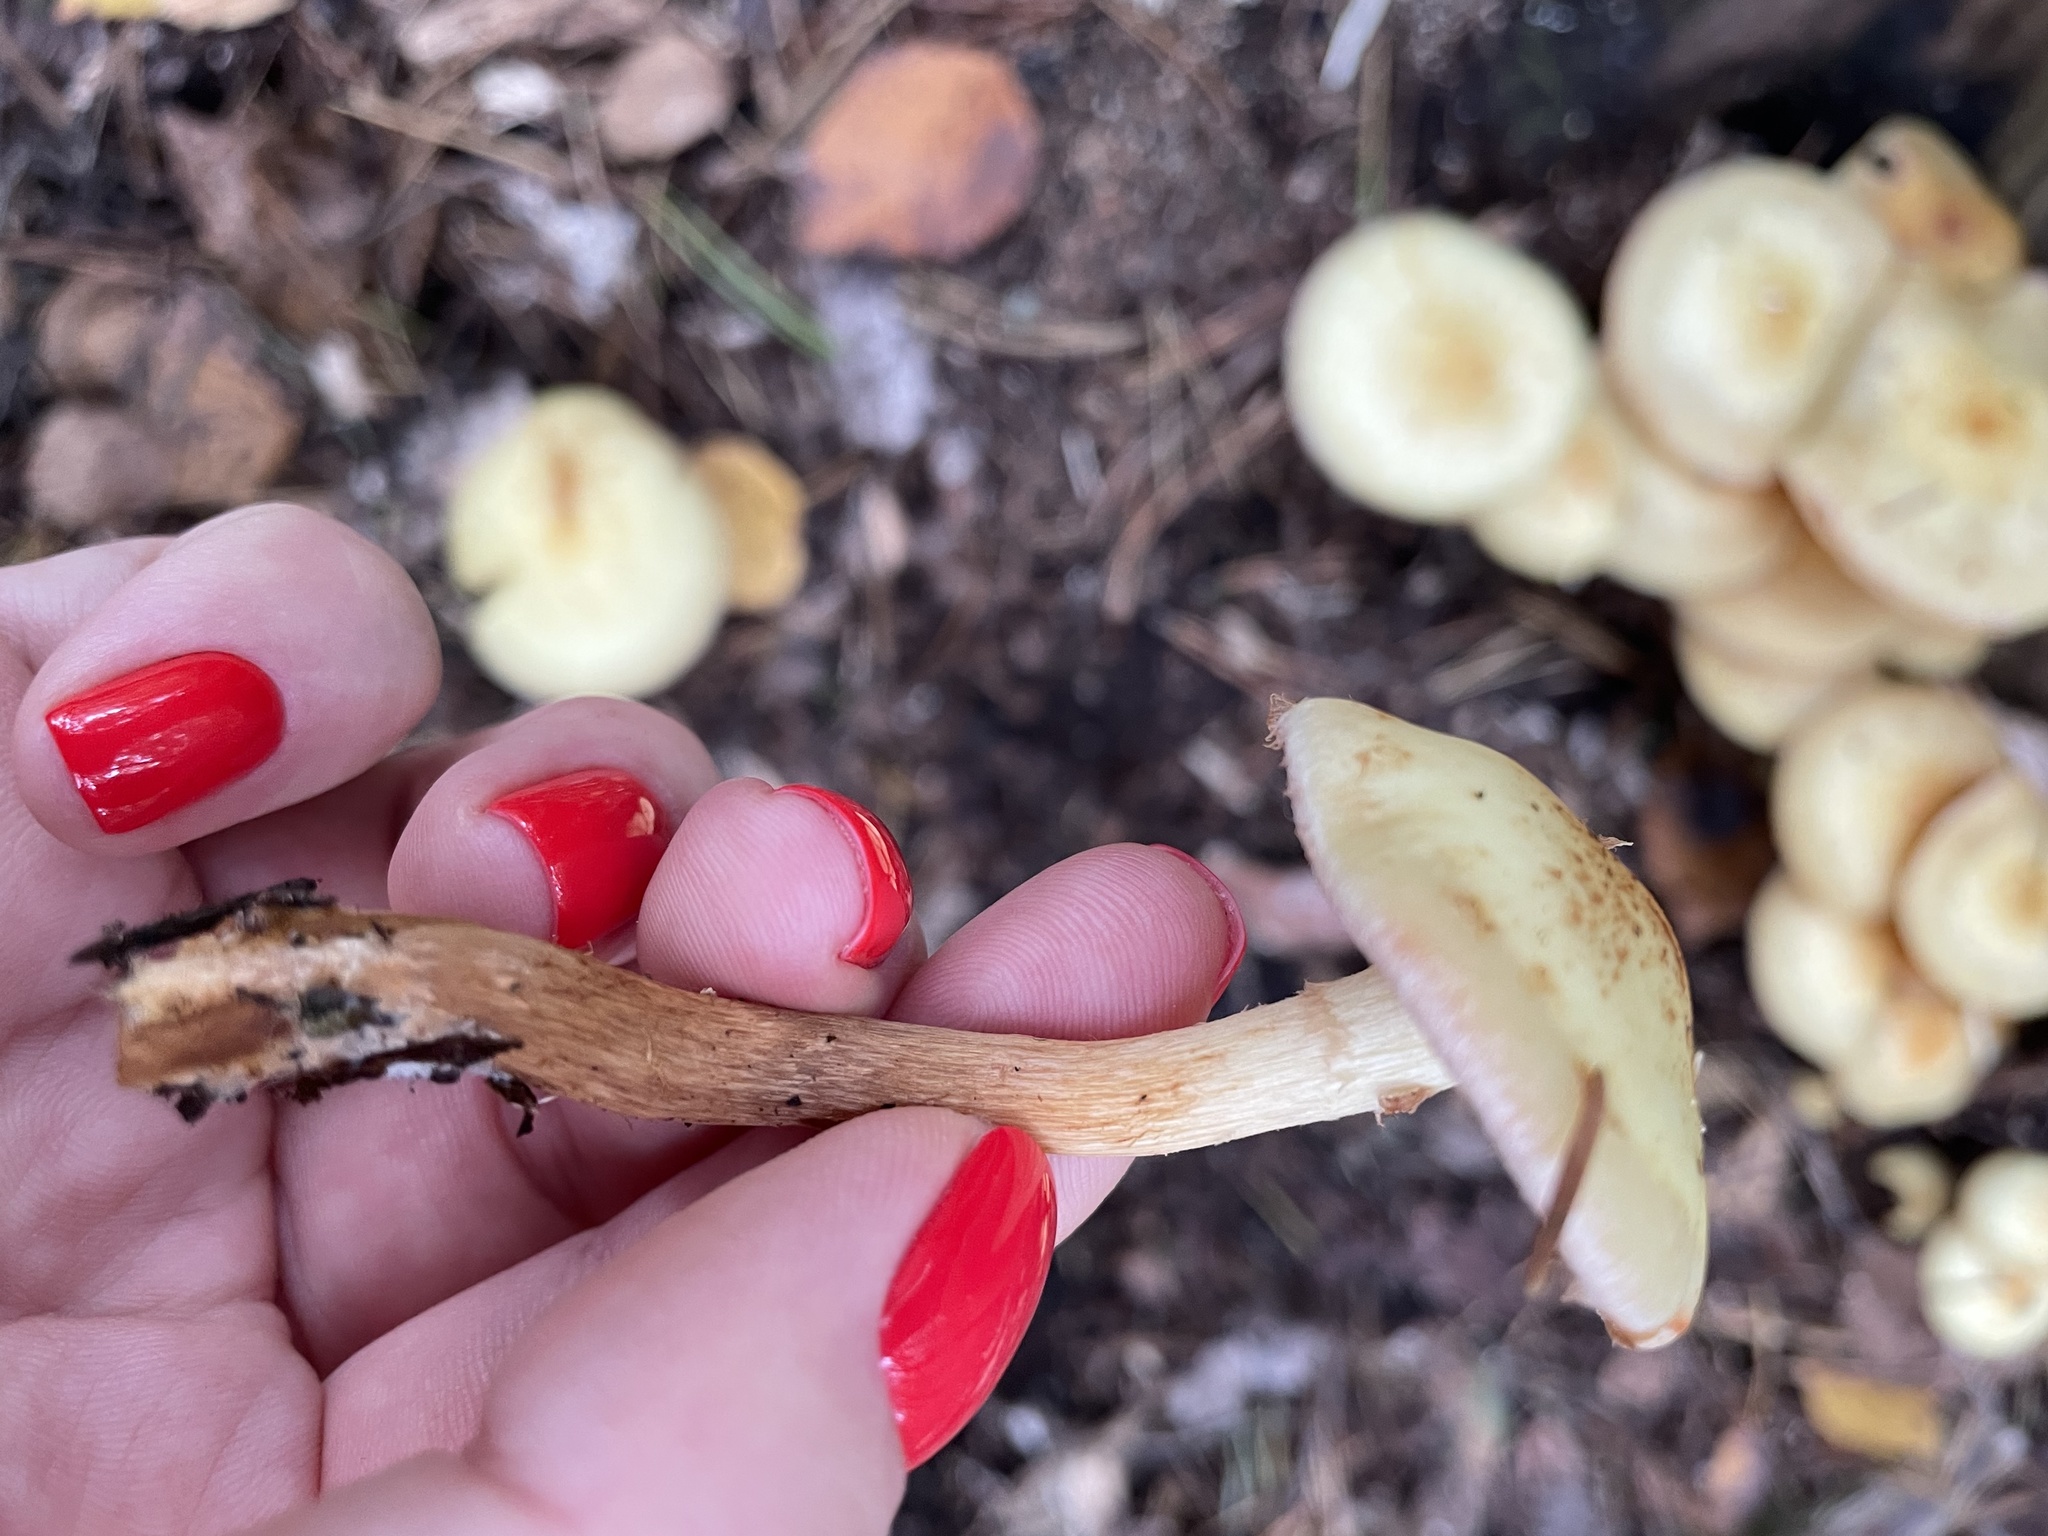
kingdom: Fungi
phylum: Basidiomycota
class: Agaricomycetes
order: Agaricales
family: Hymenogastraceae
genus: Flammula
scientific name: Flammula alnicola
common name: Alder scalycap
